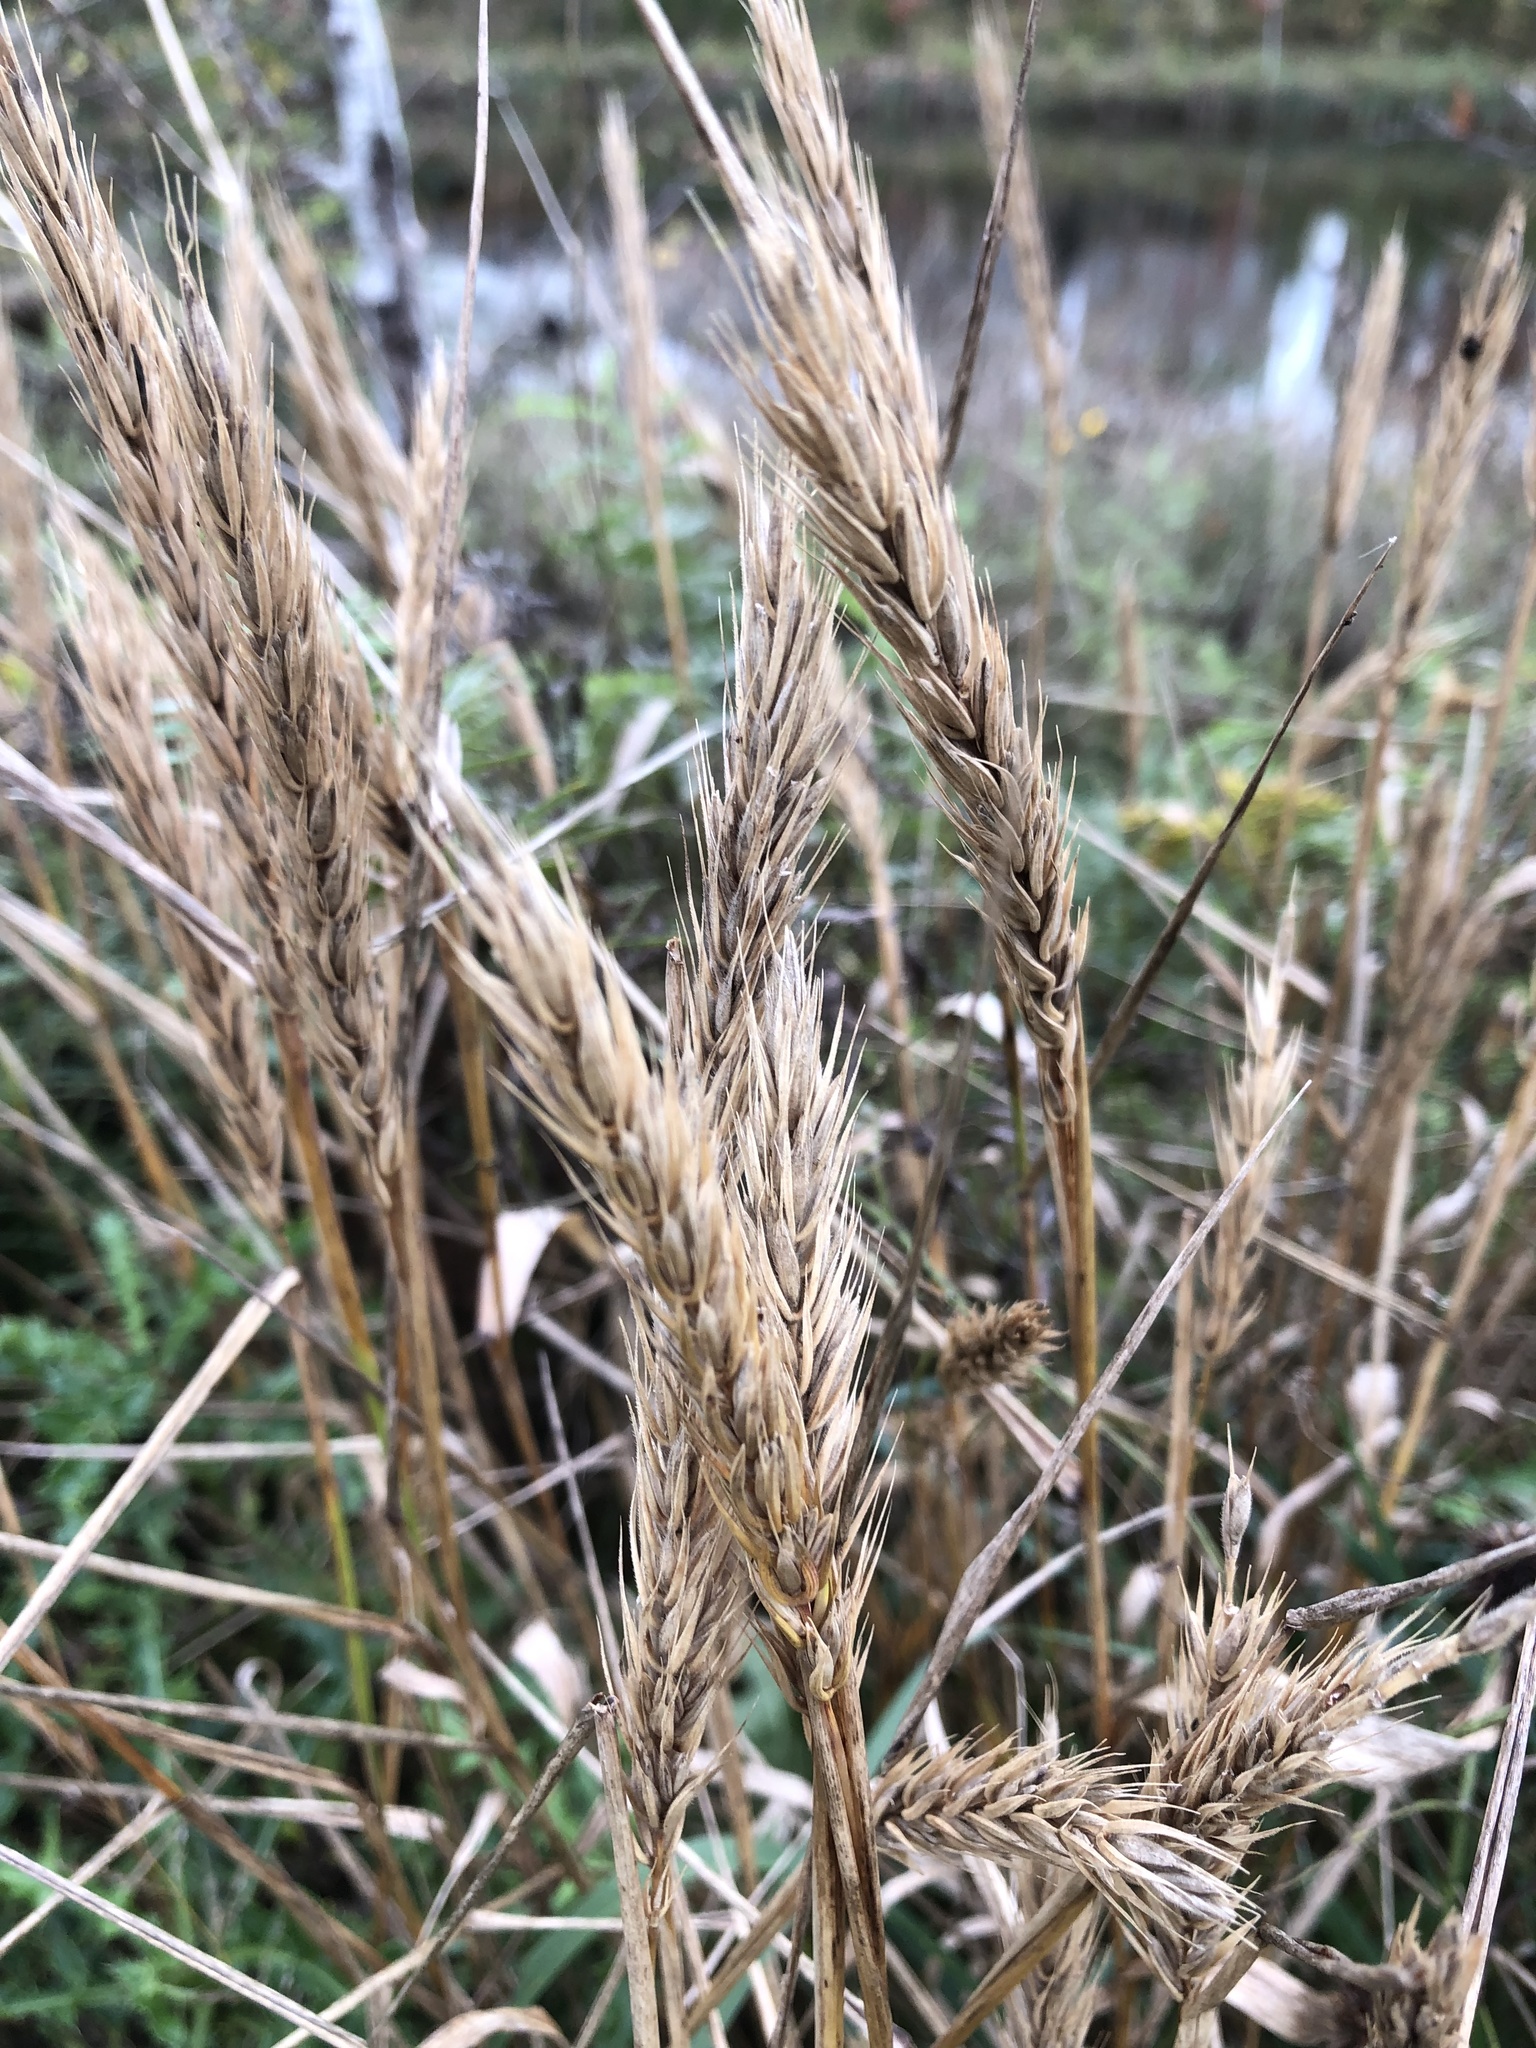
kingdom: Plantae
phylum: Tracheophyta
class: Liliopsida
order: Poales
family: Poaceae
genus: Elymus
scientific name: Elymus virginicus
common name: Common eastern wildrye
